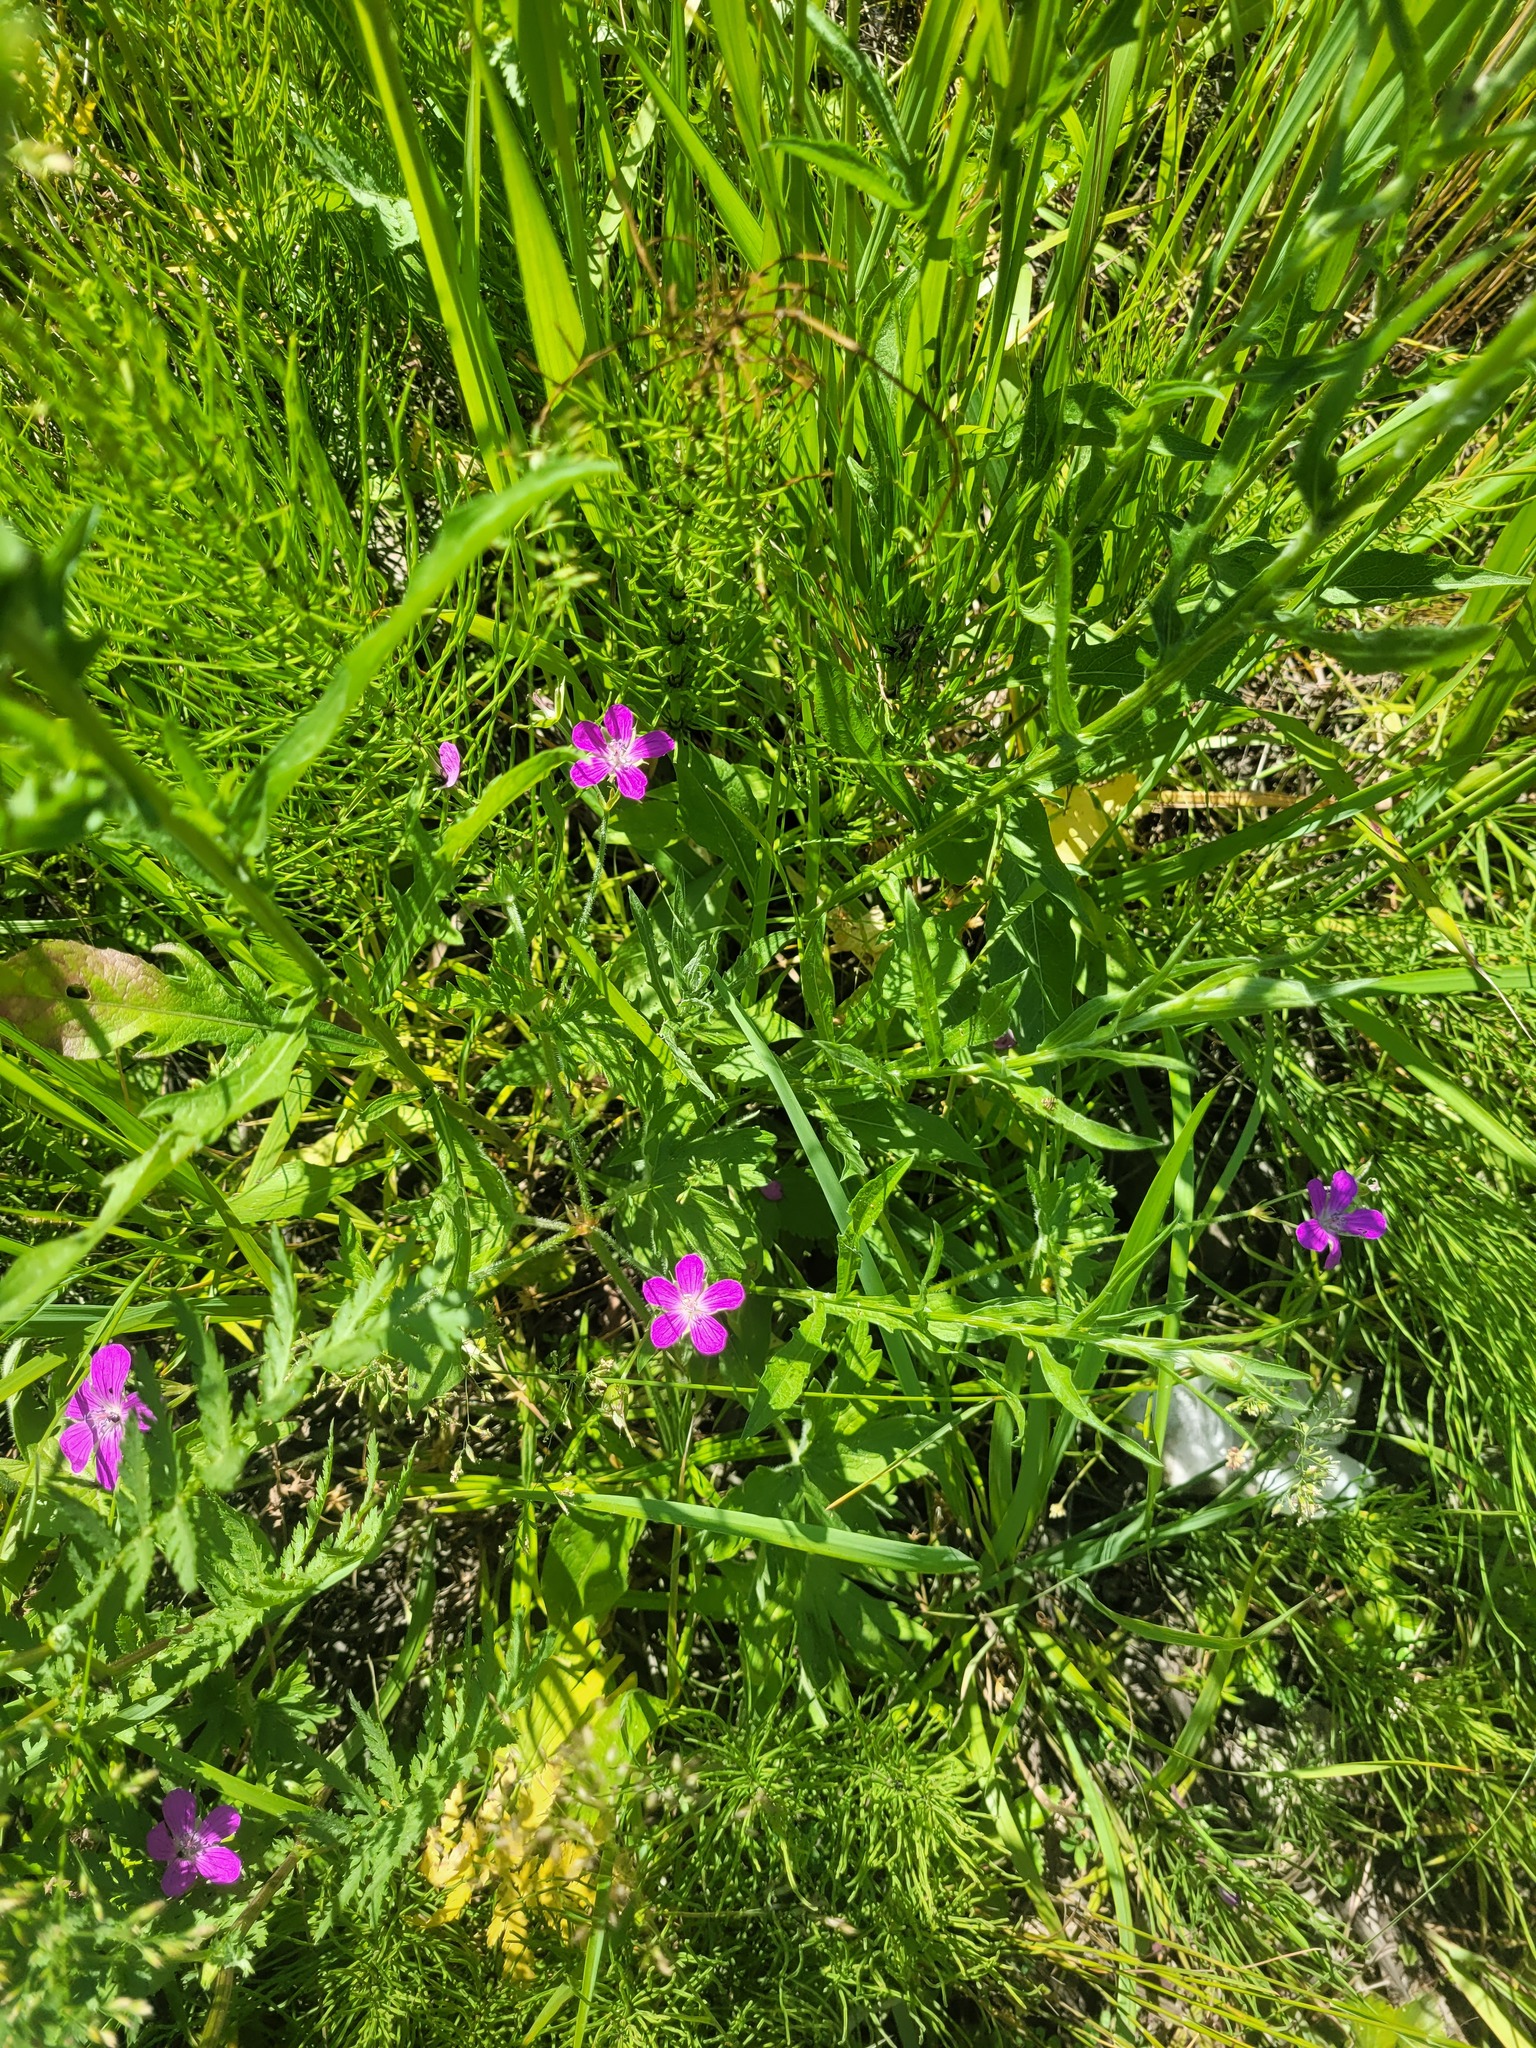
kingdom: Plantae
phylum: Tracheophyta
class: Magnoliopsida
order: Geraniales
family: Geraniaceae
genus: Geranium
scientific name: Geranium palustre
